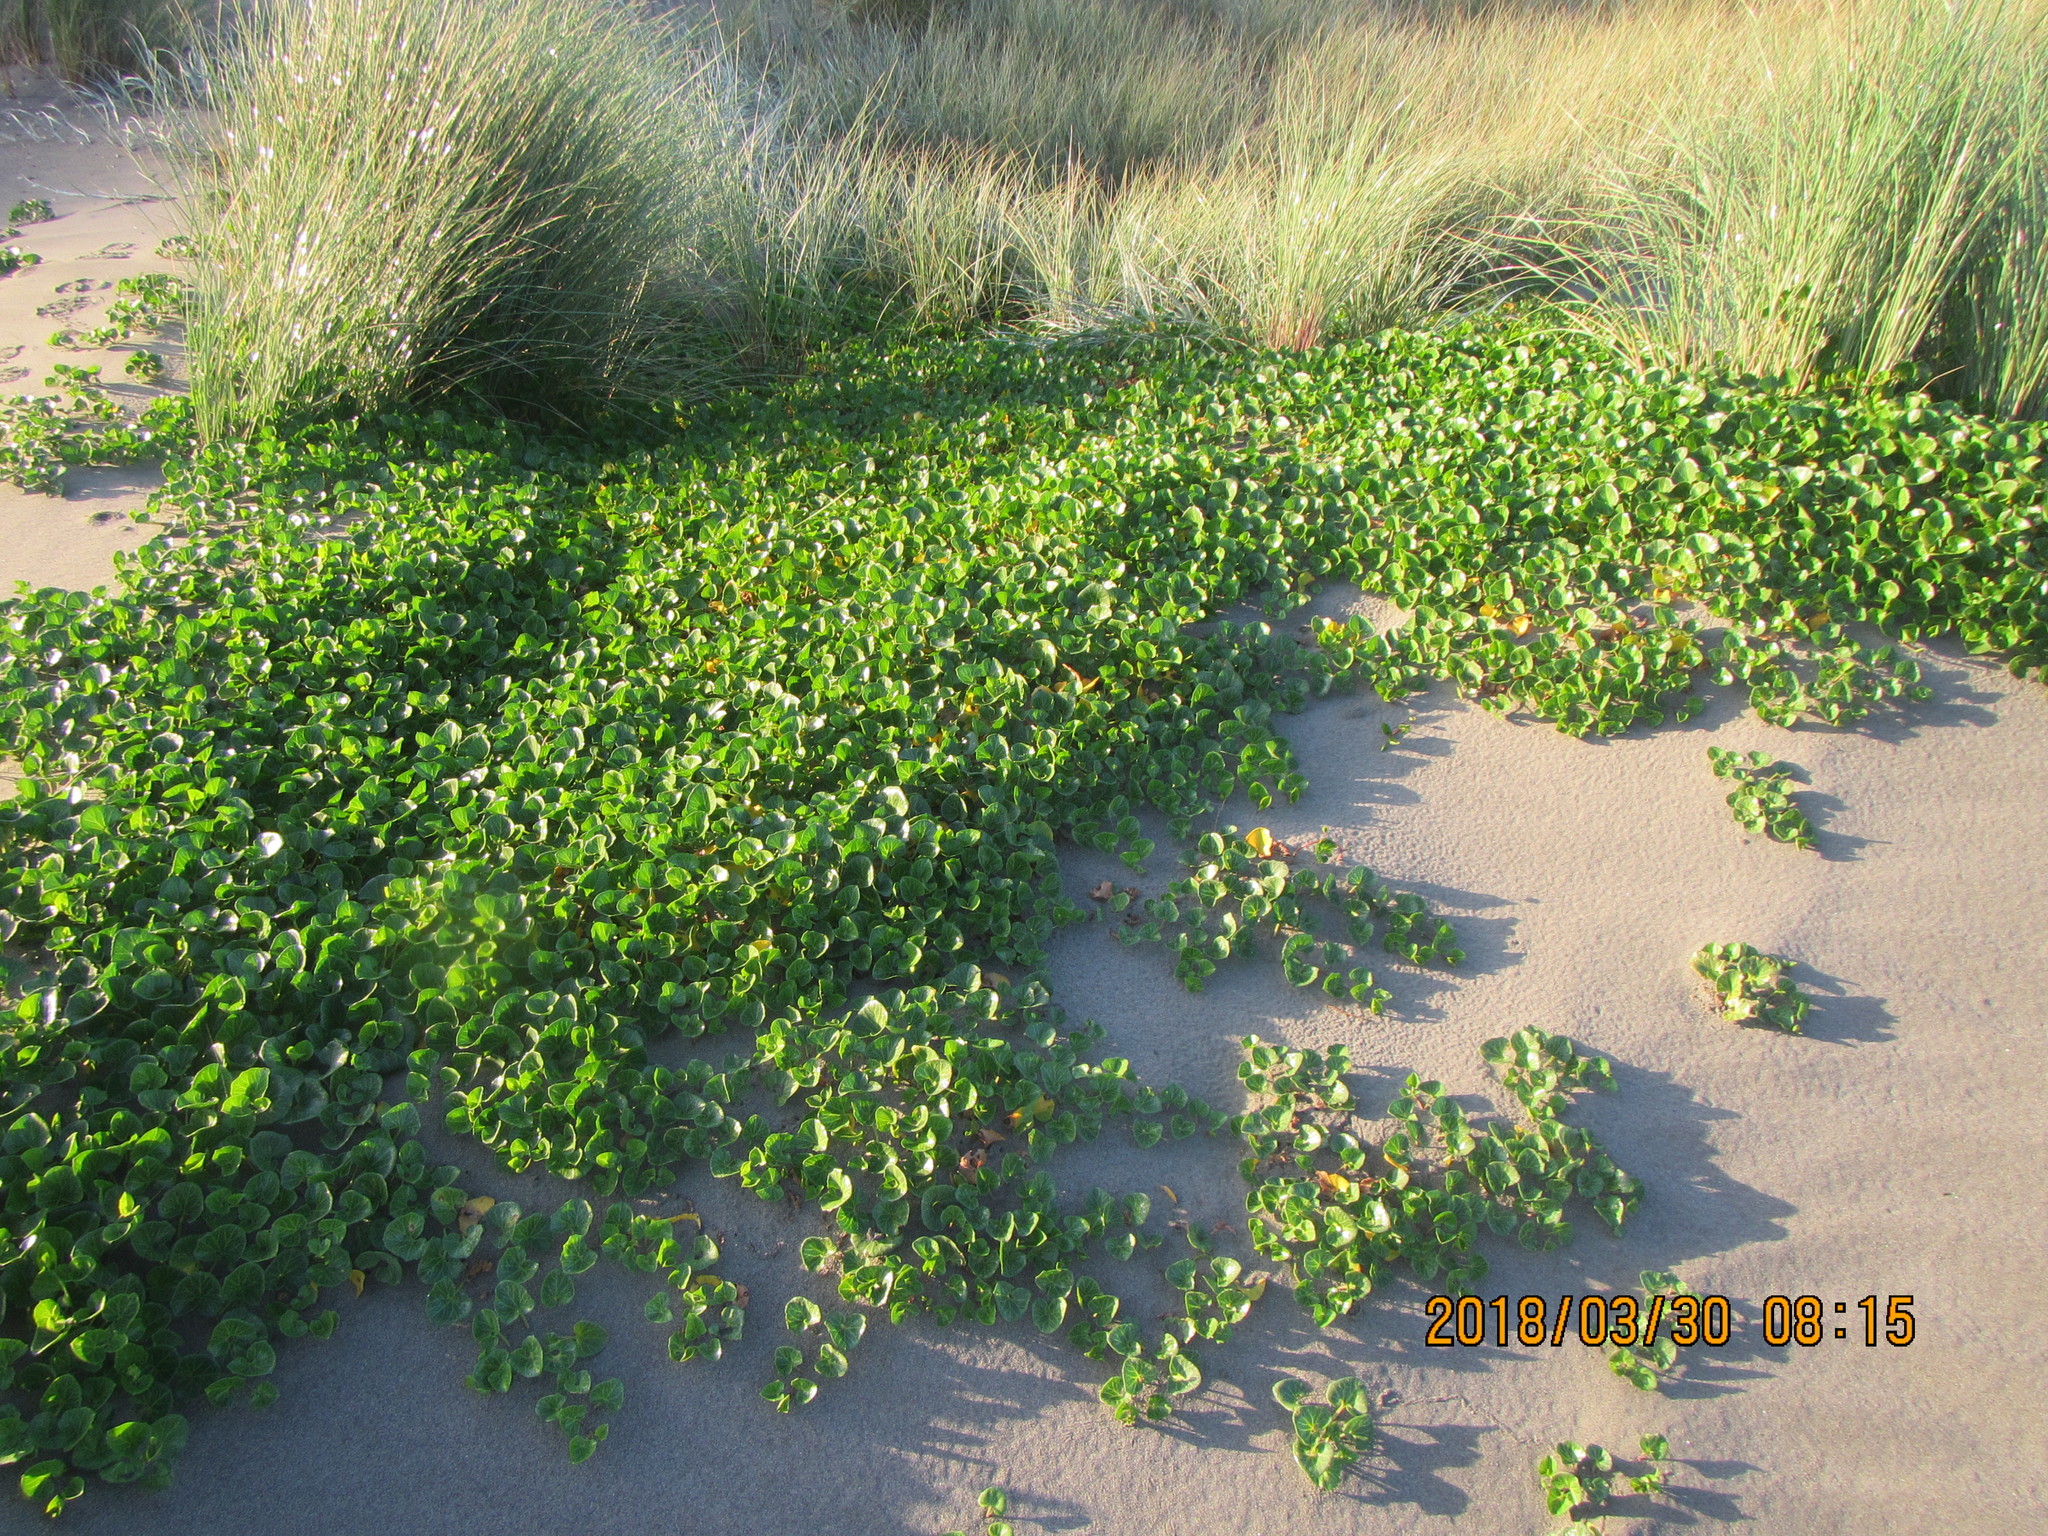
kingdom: Plantae
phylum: Tracheophyta
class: Magnoliopsida
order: Solanales
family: Convolvulaceae
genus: Calystegia
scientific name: Calystegia soldanella
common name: Sea bindweed
